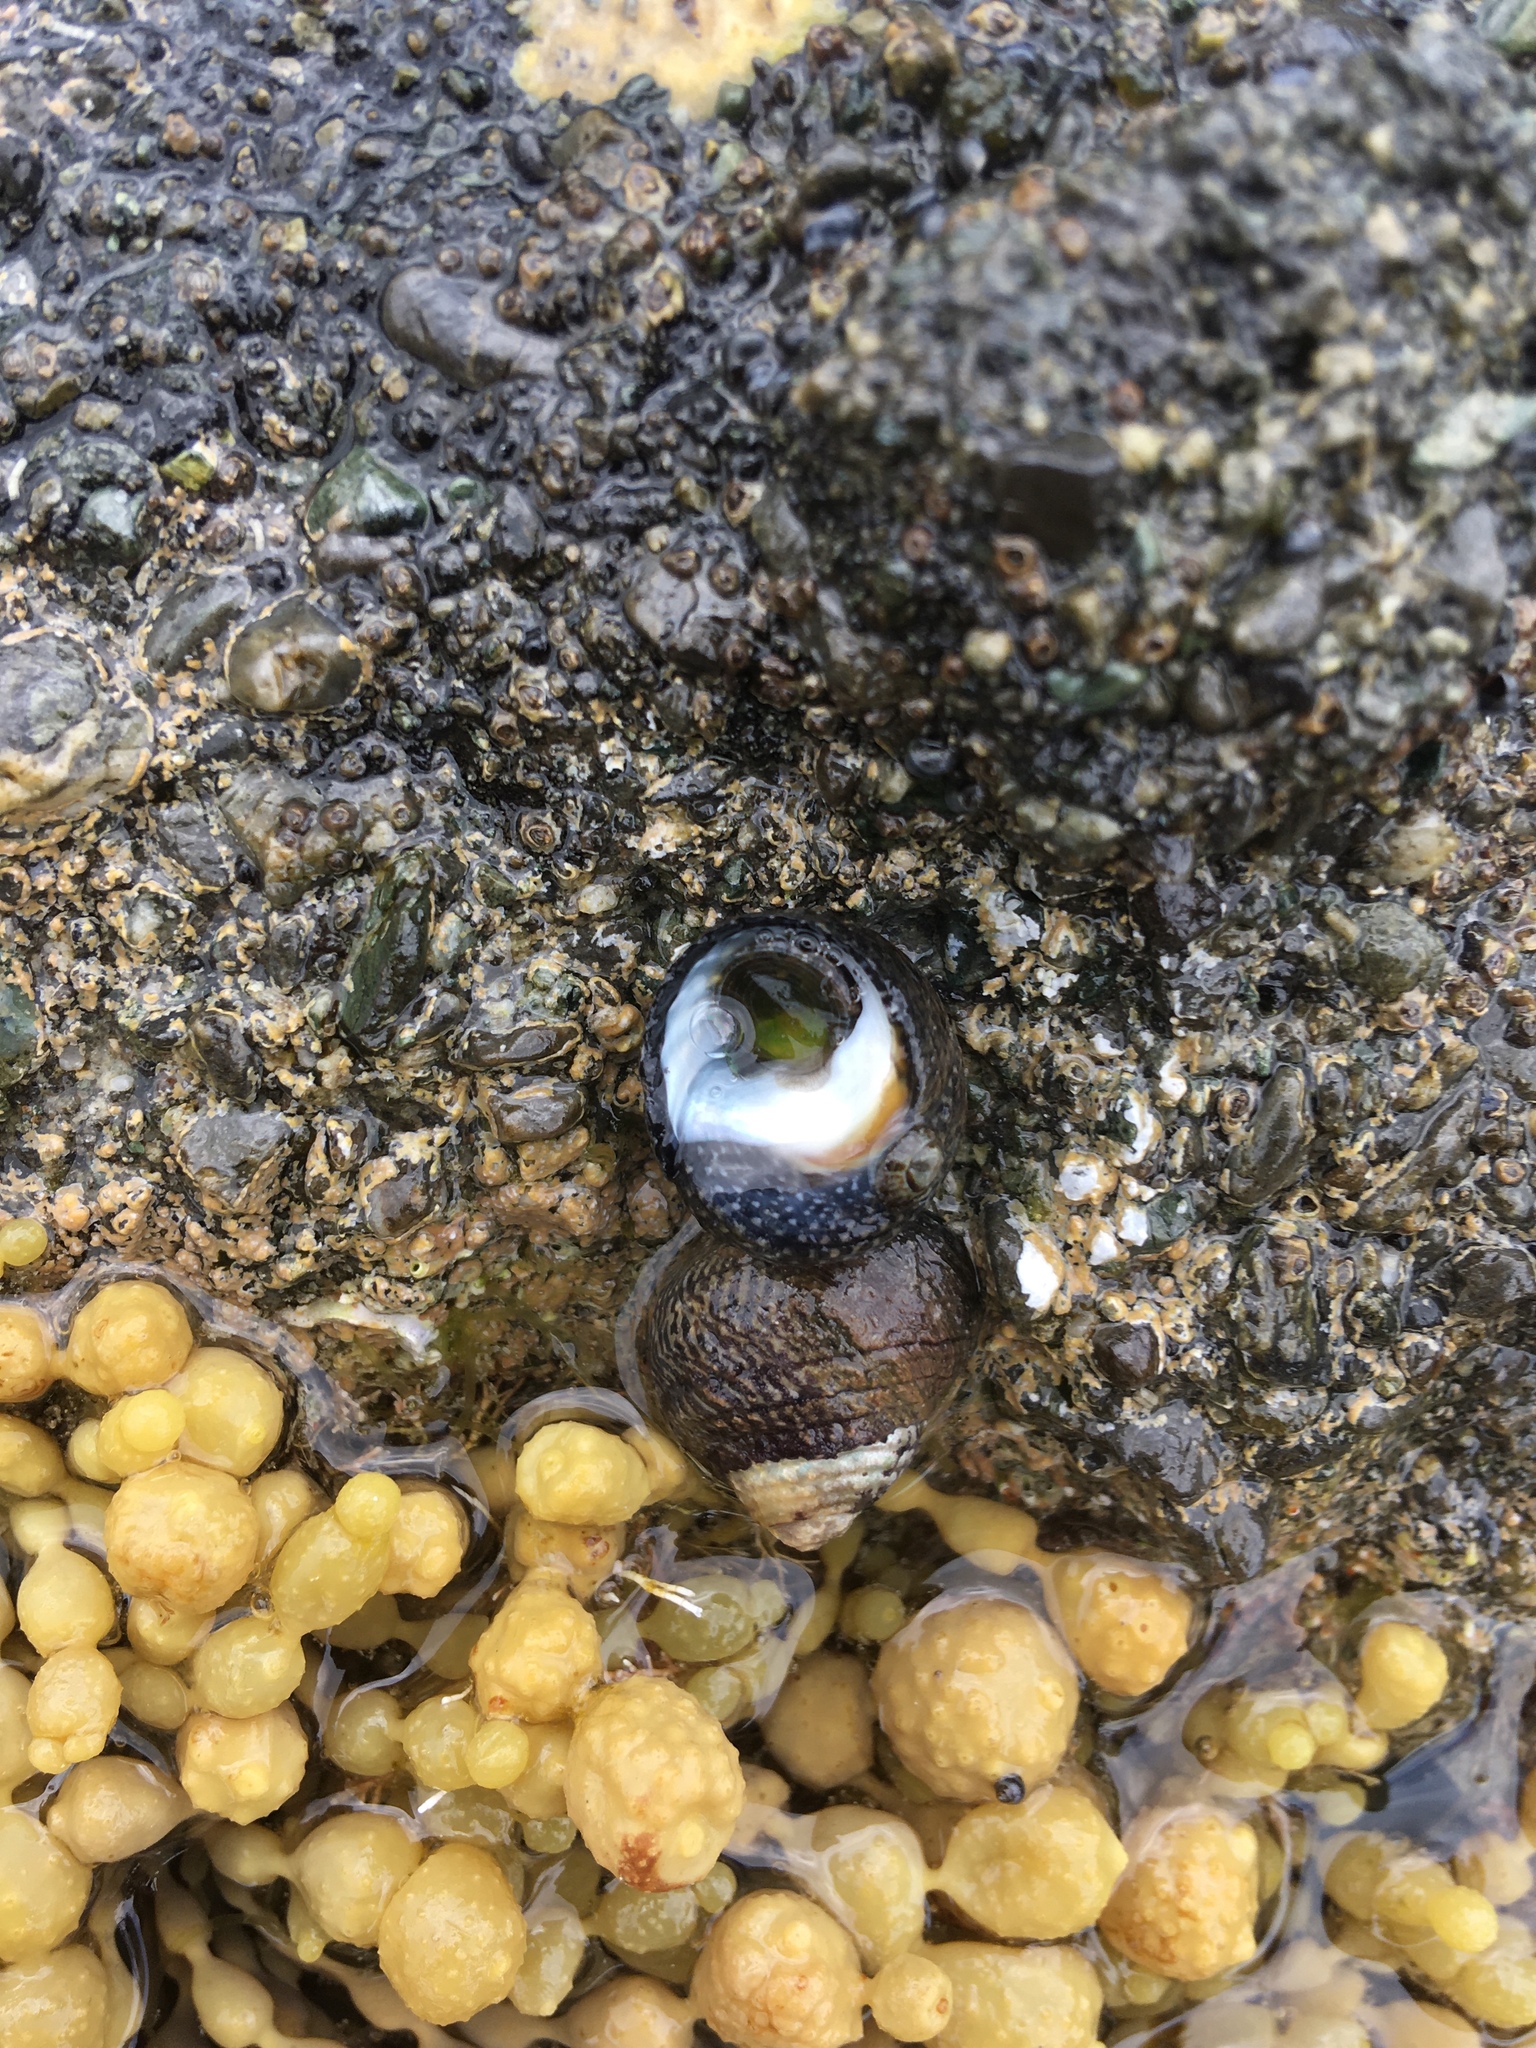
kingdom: Animalia
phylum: Mollusca
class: Gastropoda
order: Trochida
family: Trochidae
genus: Diloma
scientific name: Diloma aethiops
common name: Scorched monodont
